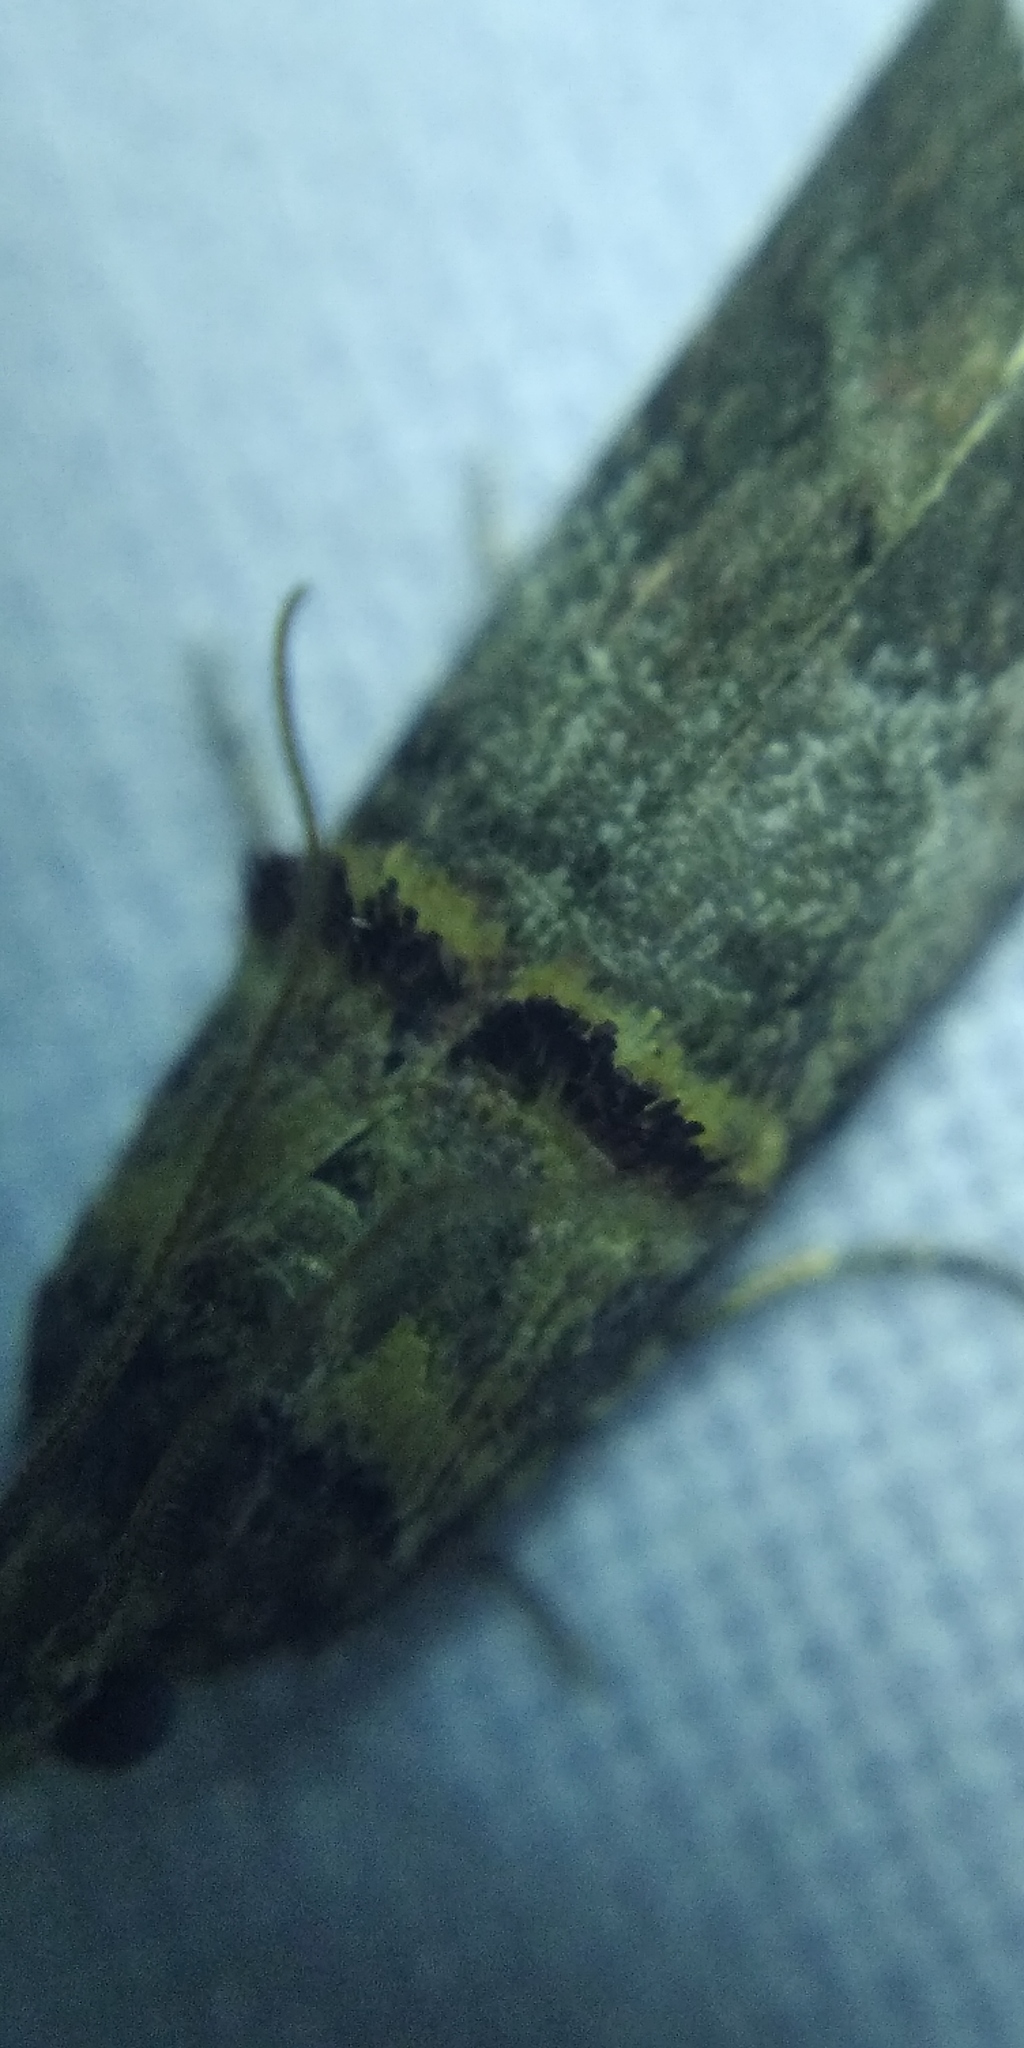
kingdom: Animalia
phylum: Arthropoda
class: Insecta
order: Lepidoptera
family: Pyralidae
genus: Trachonitis
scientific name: Trachonitis cristella
